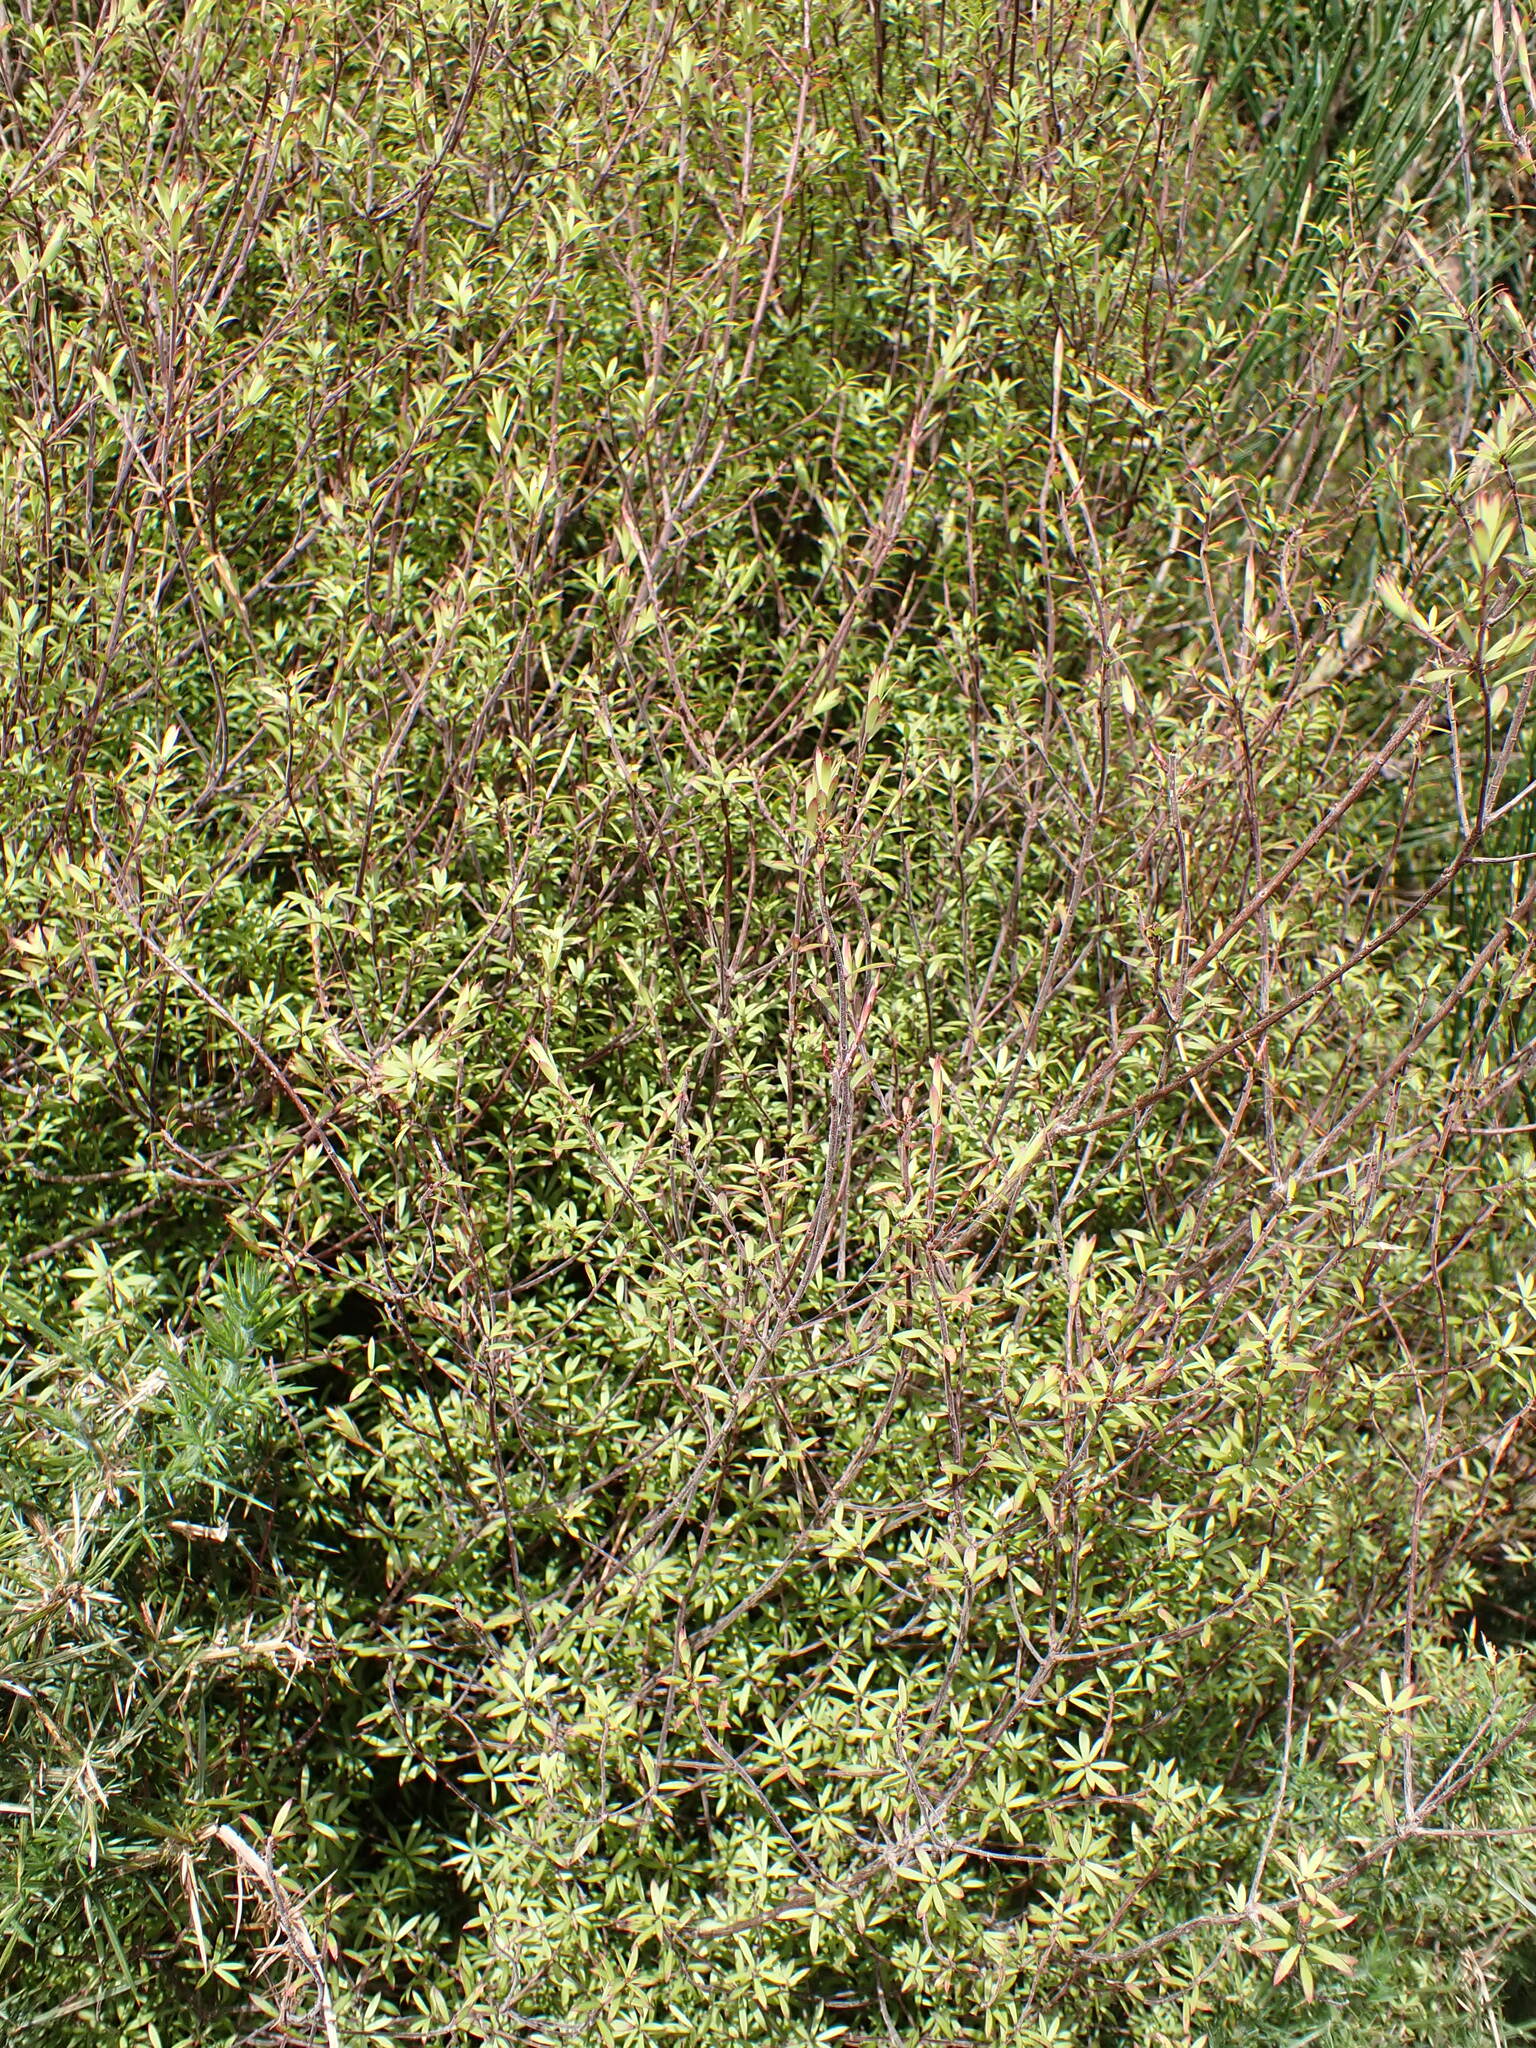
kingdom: Plantae
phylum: Tracheophyta
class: Magnoliopsida
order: Ericales
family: Ericaceae
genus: Leucopogon
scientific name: Leucopogon fasciculatus
